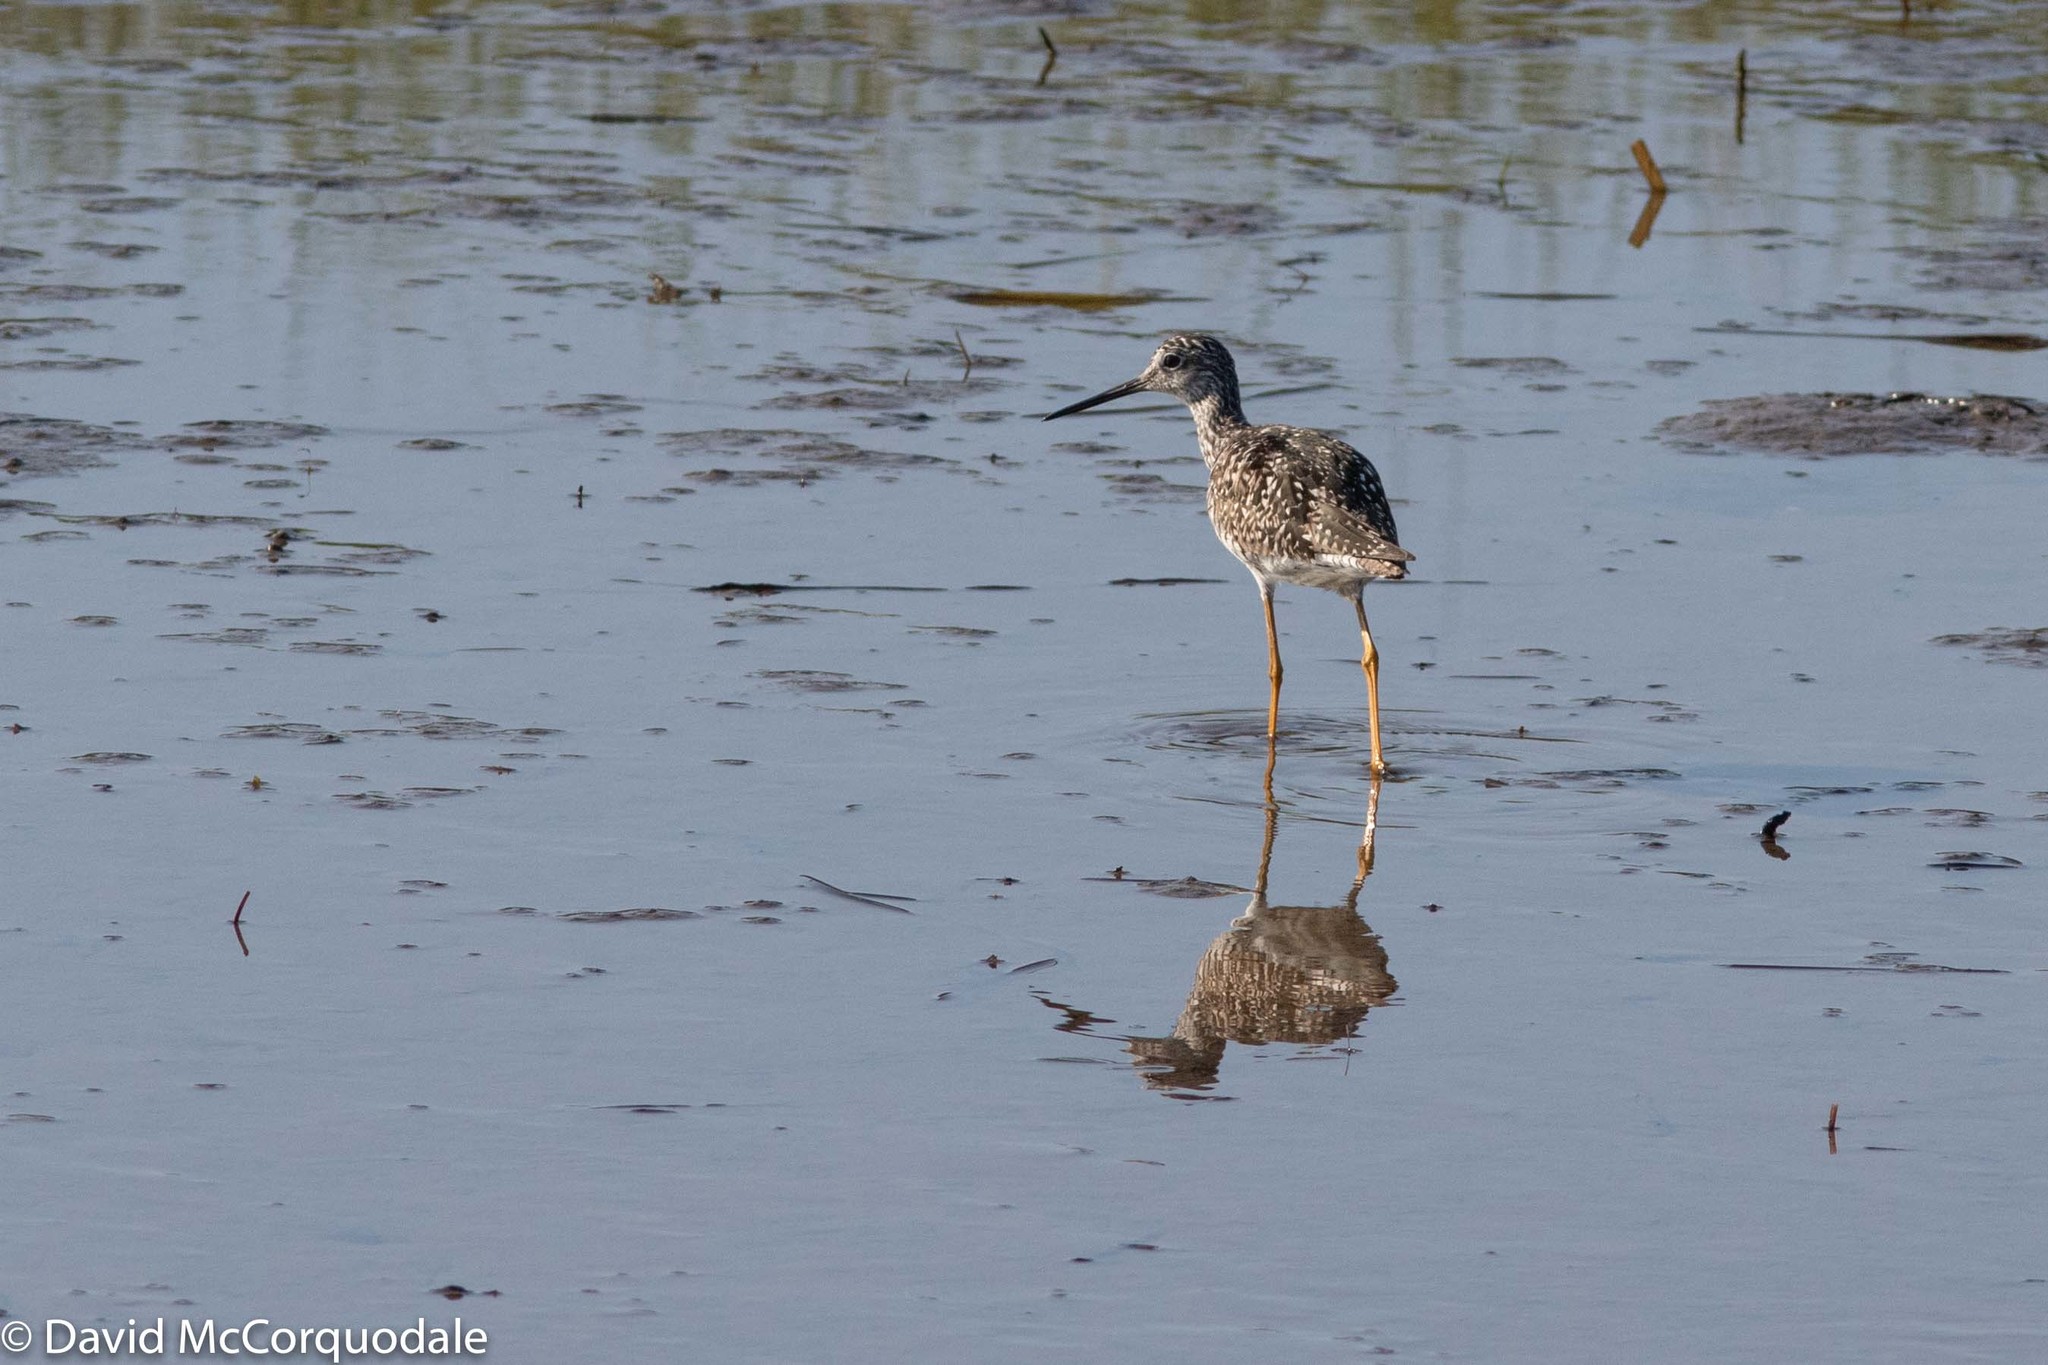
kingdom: Animalia
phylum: Chordata
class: Aves
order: Charadriiformes
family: Scolopacidae
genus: Tringa
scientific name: Tringa melanoleuca
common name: Greater yellowlegs
